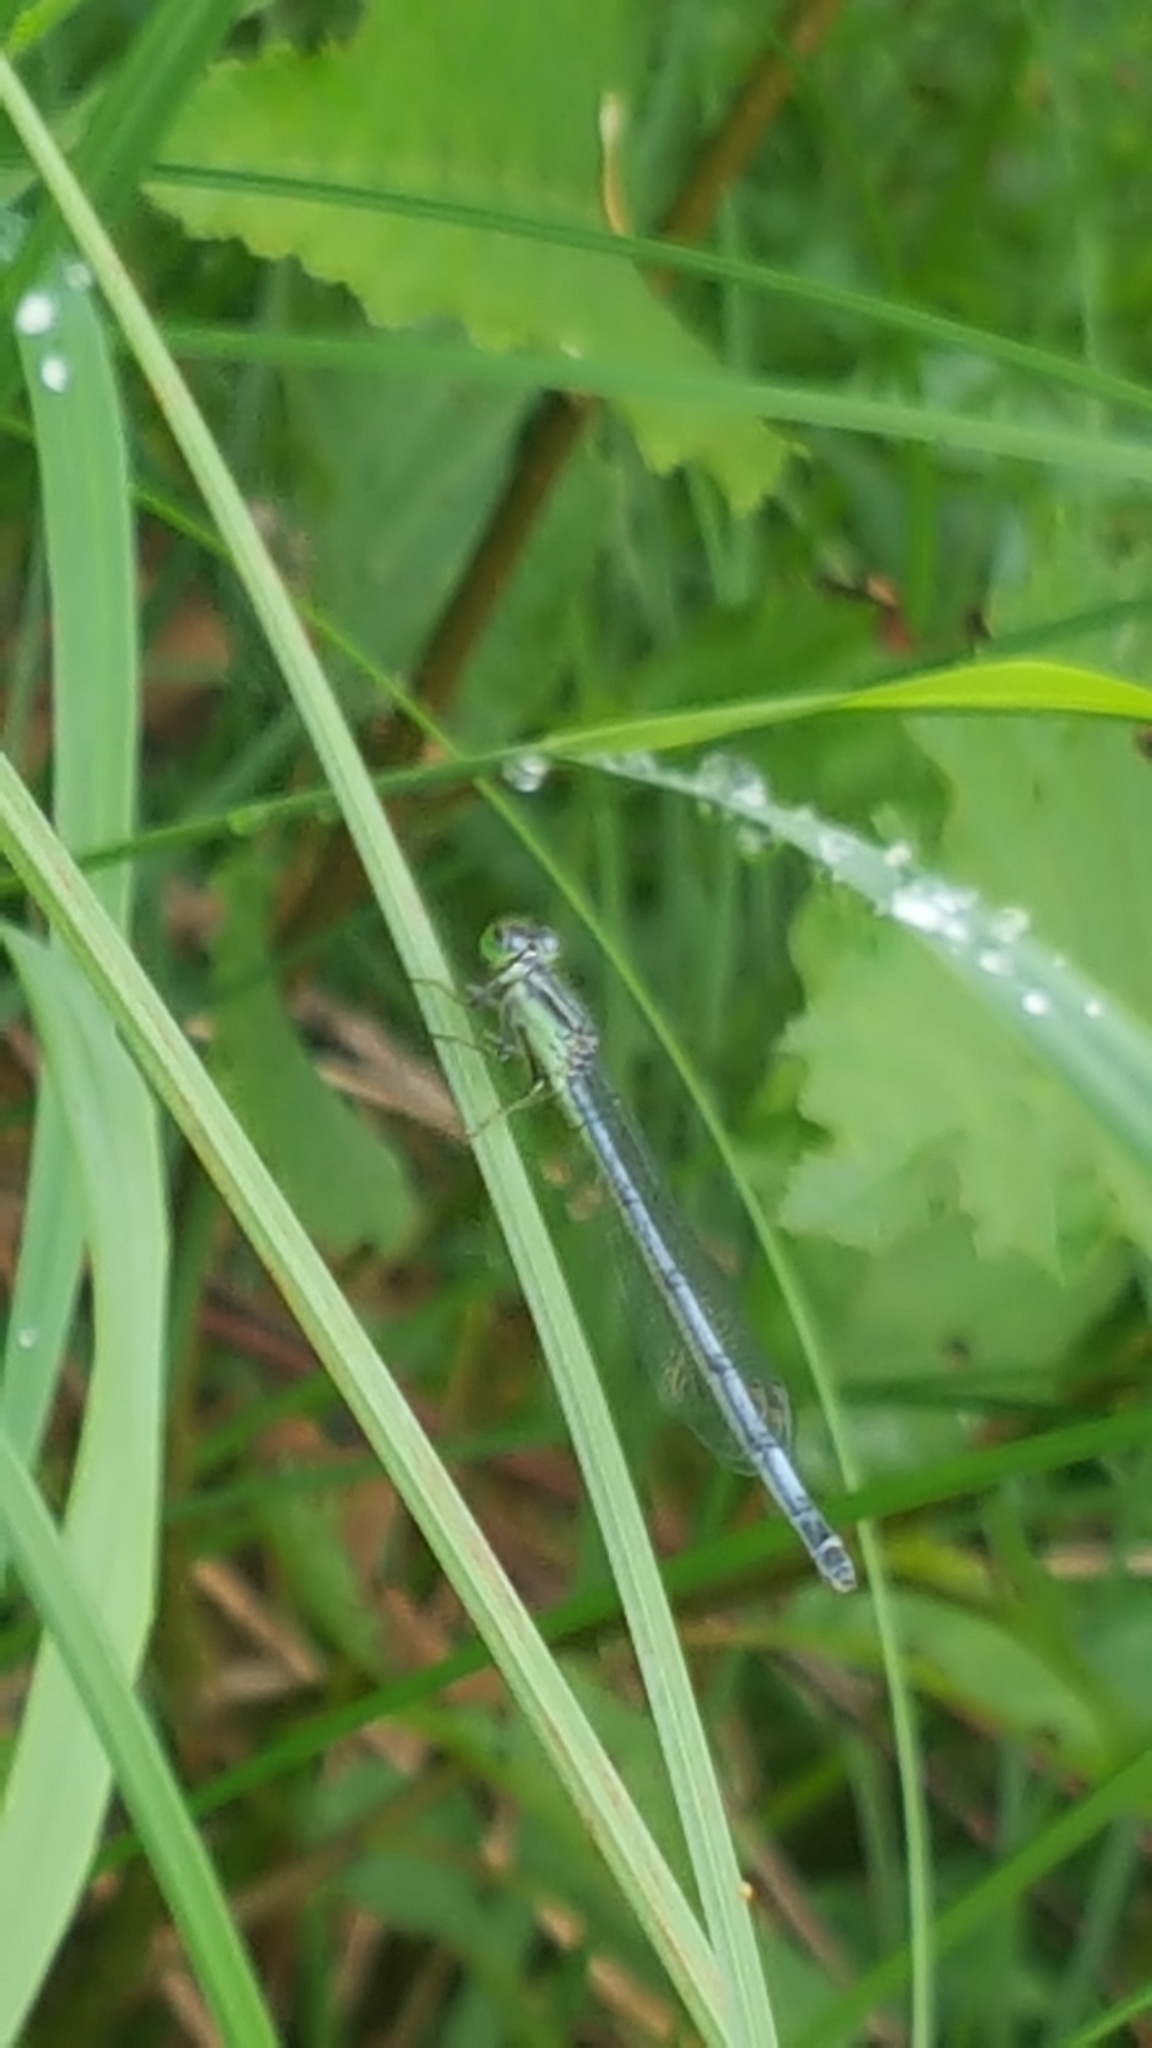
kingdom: Animalia
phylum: Arthropoda
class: Insecta
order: Odonata
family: Coenagrionidae
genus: Ischnura
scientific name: Ischnura verticalis
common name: Eastern forktail
